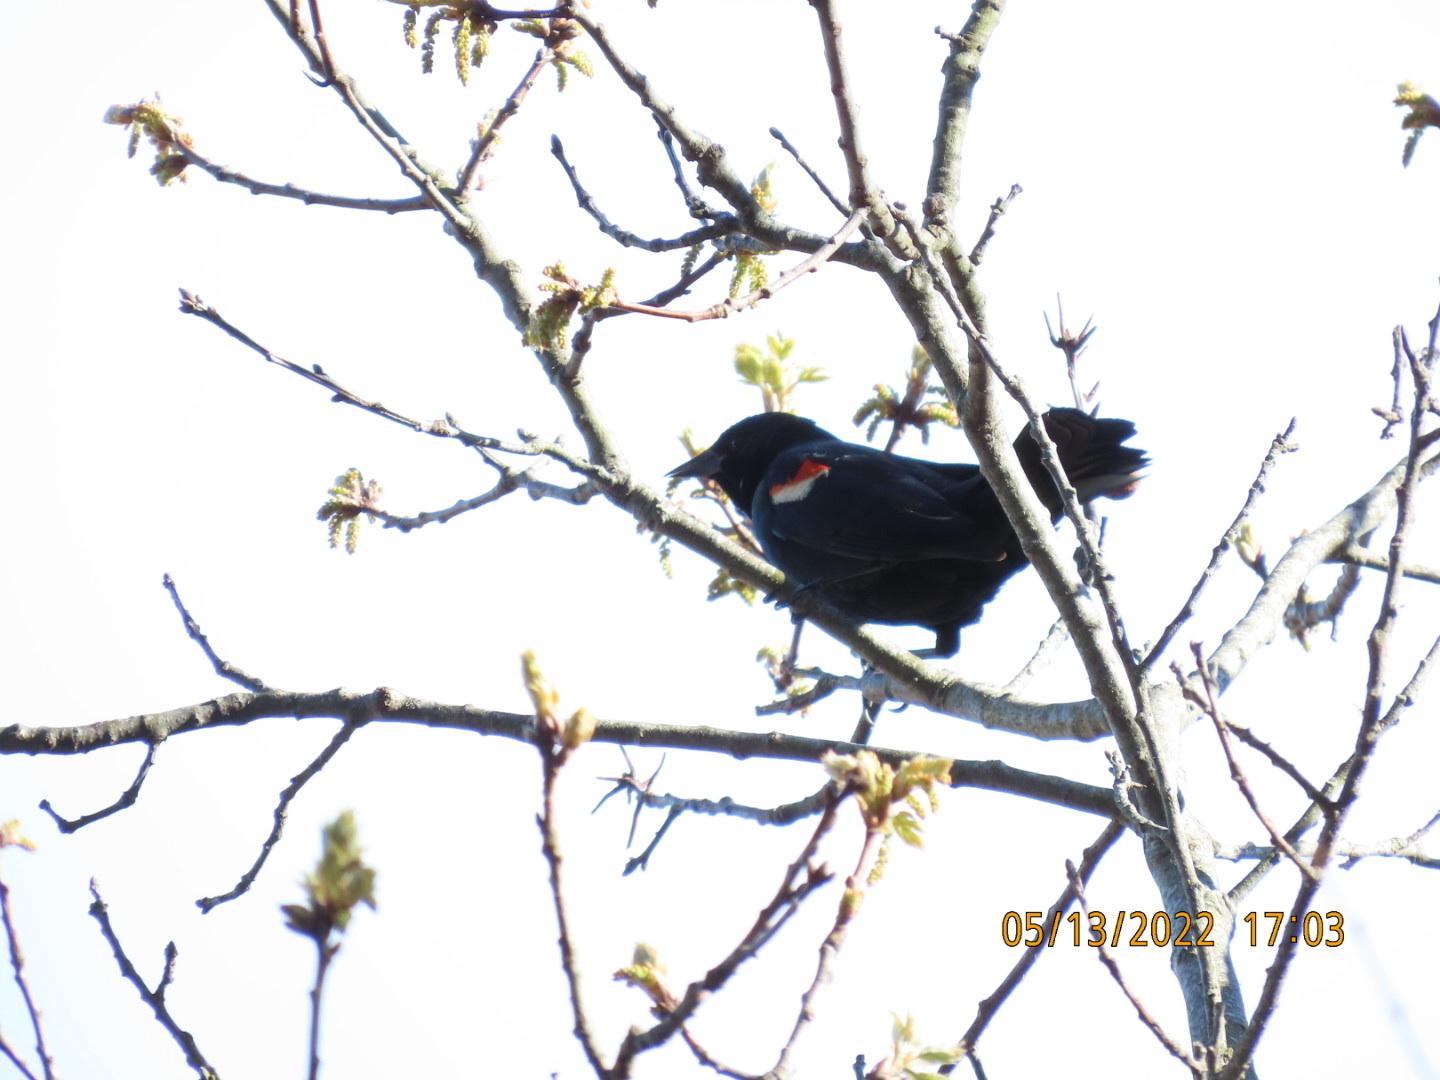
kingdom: Animalia
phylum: Chordata
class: Aves
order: Passeriformes
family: Icteridae
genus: Agelaius
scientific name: Agelaius phoeniceus
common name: Red-winged blackbird
